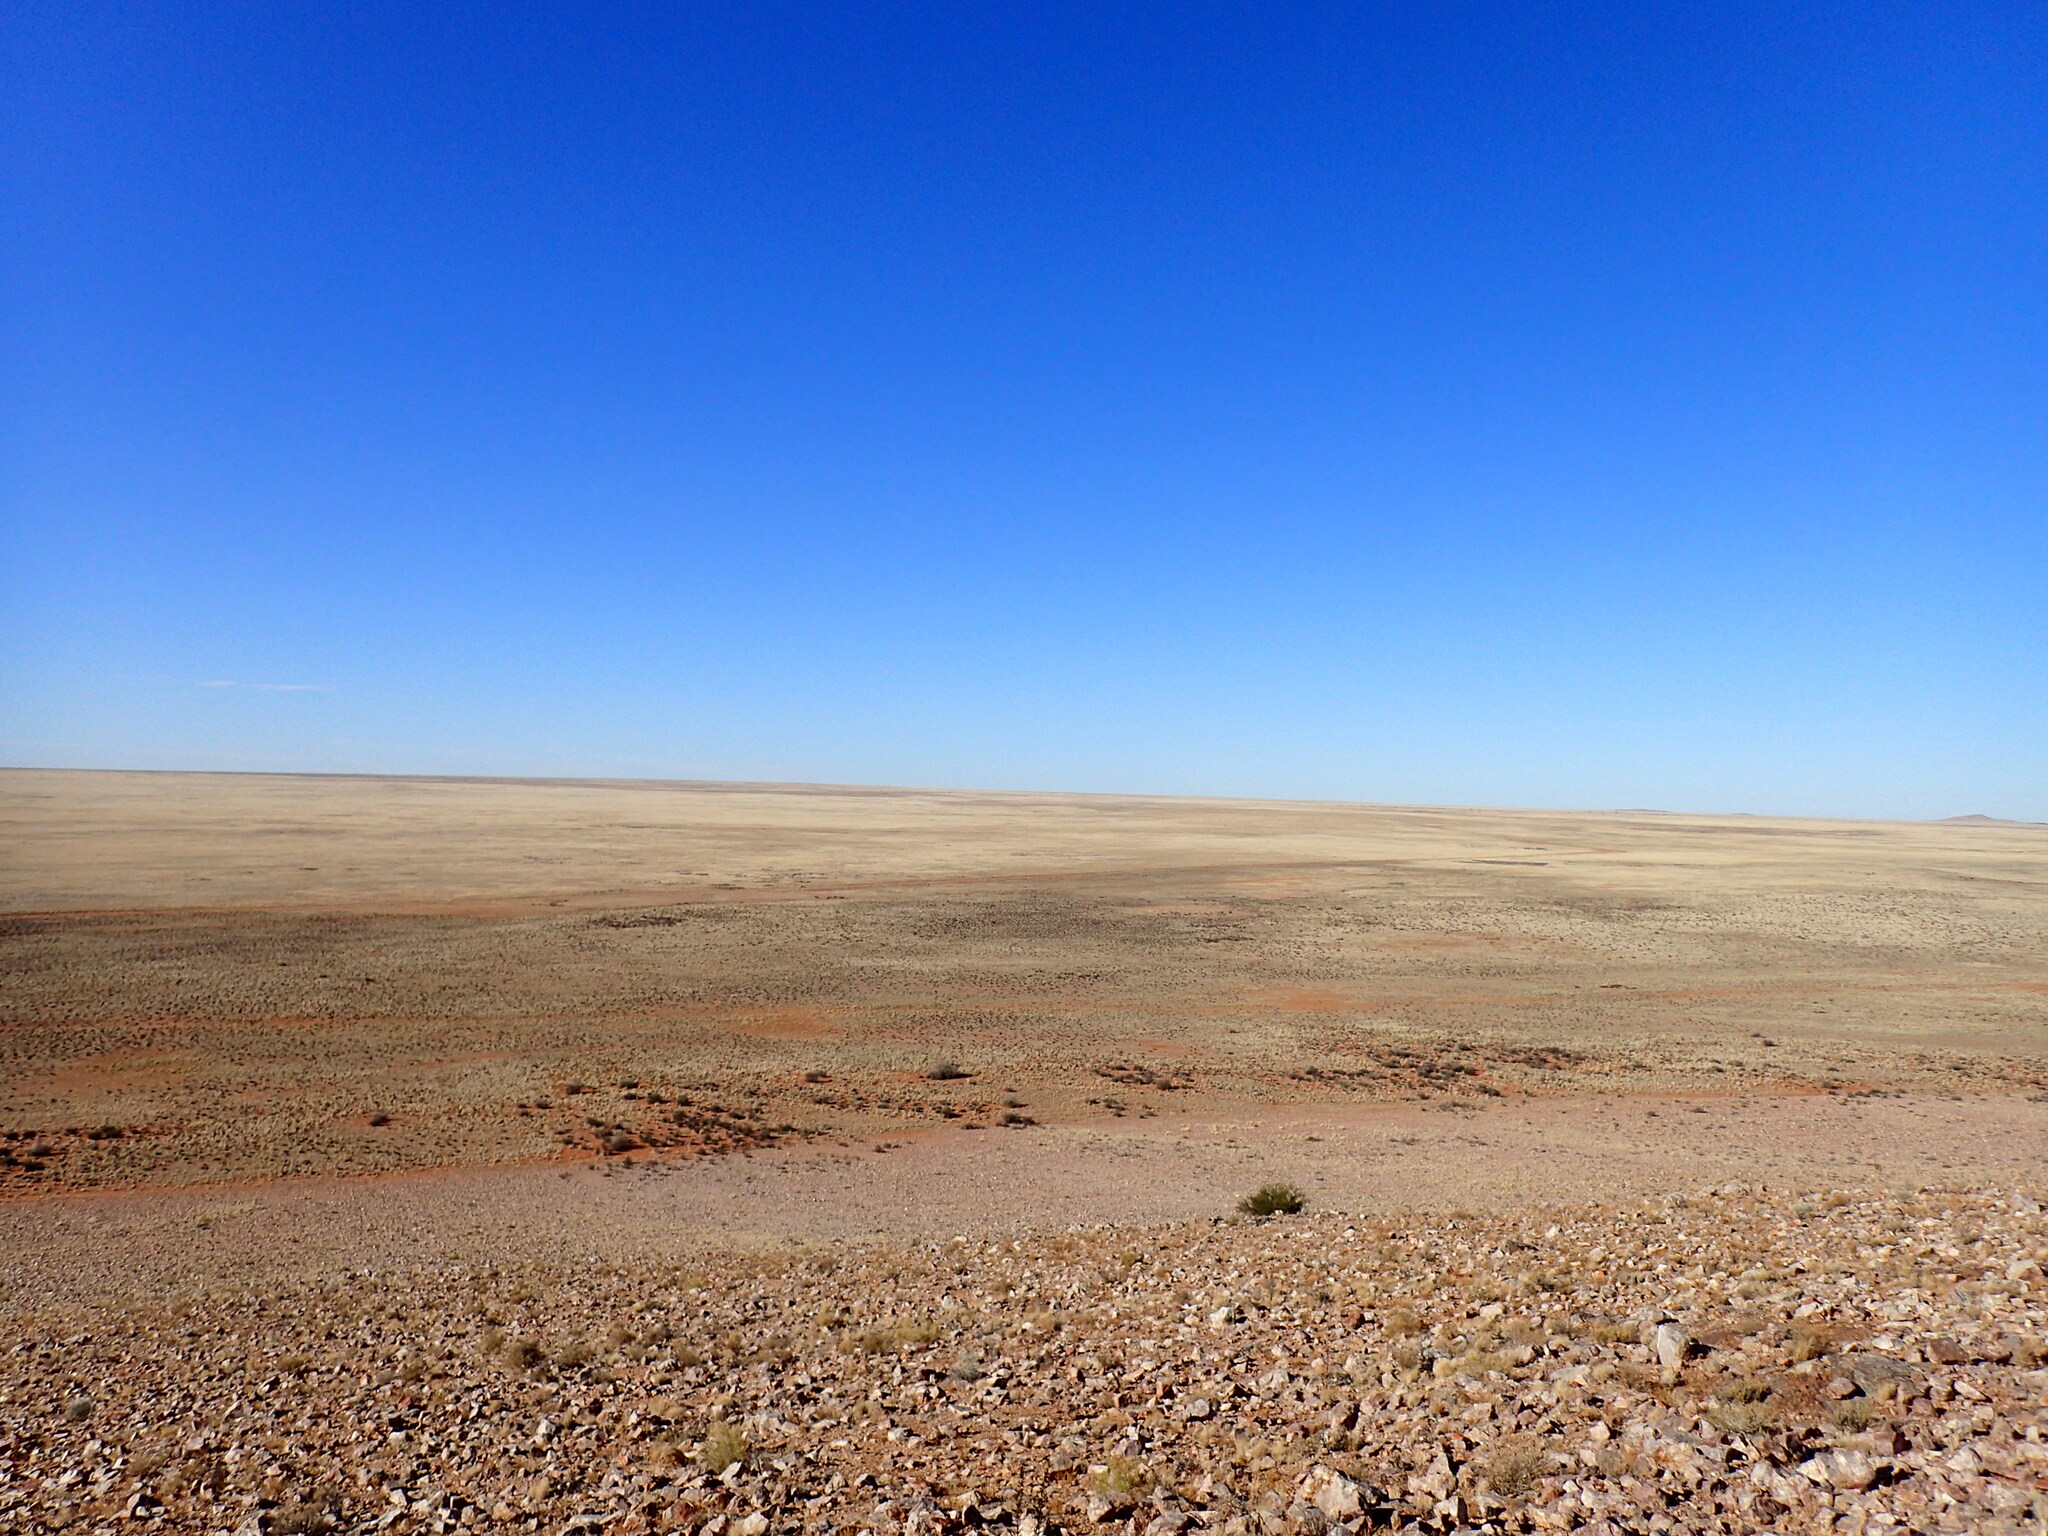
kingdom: Plantae
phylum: Tracheophyta
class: Liliopsida
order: Poales
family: Poaceae
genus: Stipagrostis
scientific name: Stipagrostis ciliata
